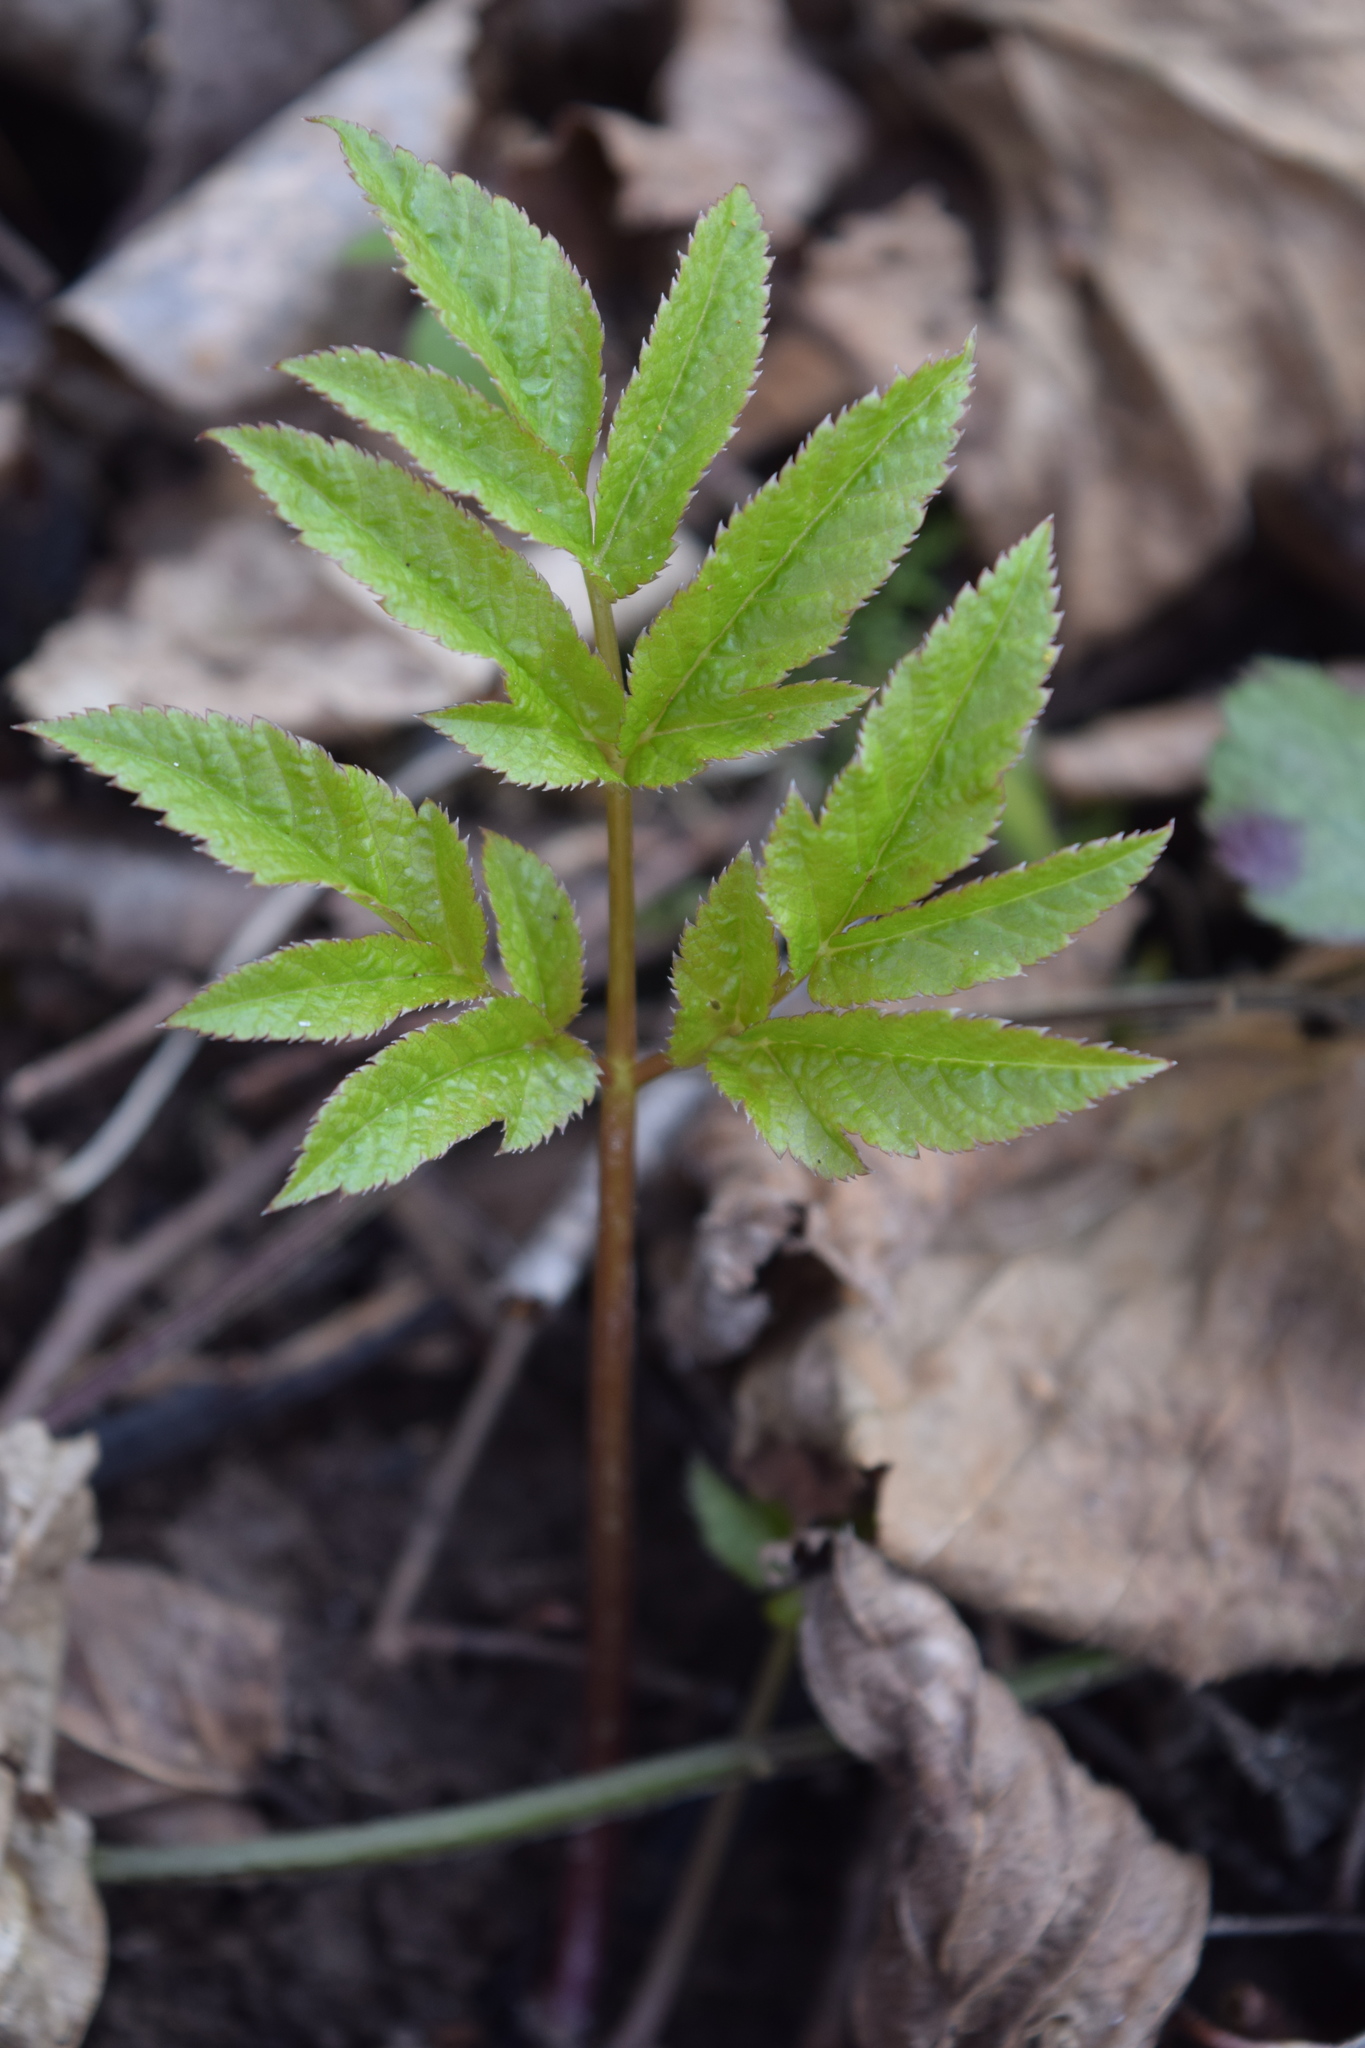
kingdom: Plantae
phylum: Tracheophyta
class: Magnoliopsida
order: Apiales
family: Apiaceae
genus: Aegopodium
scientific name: Aegopodium podagraria
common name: Ground-elder
